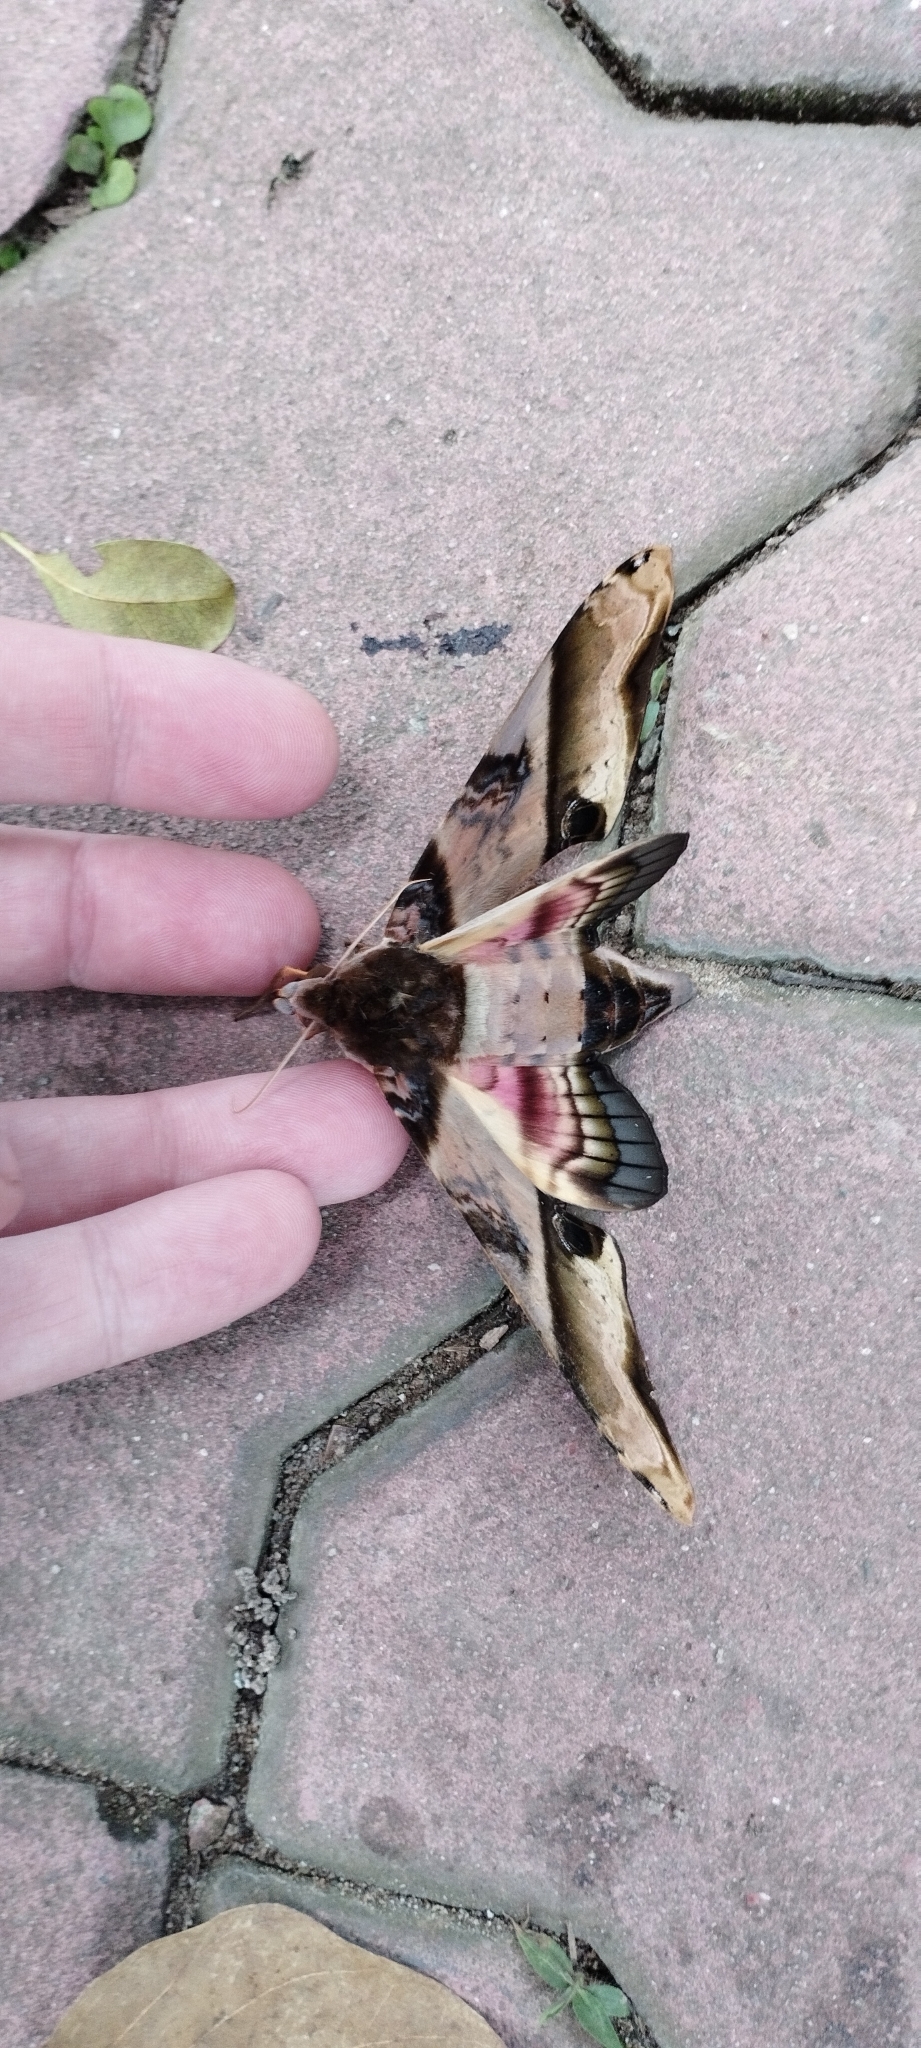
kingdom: Animalia
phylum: Arthropoda
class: Insecta
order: Lepidoptera
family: Sphingidae
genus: Amplypterus
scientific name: Amplypterus panopus
